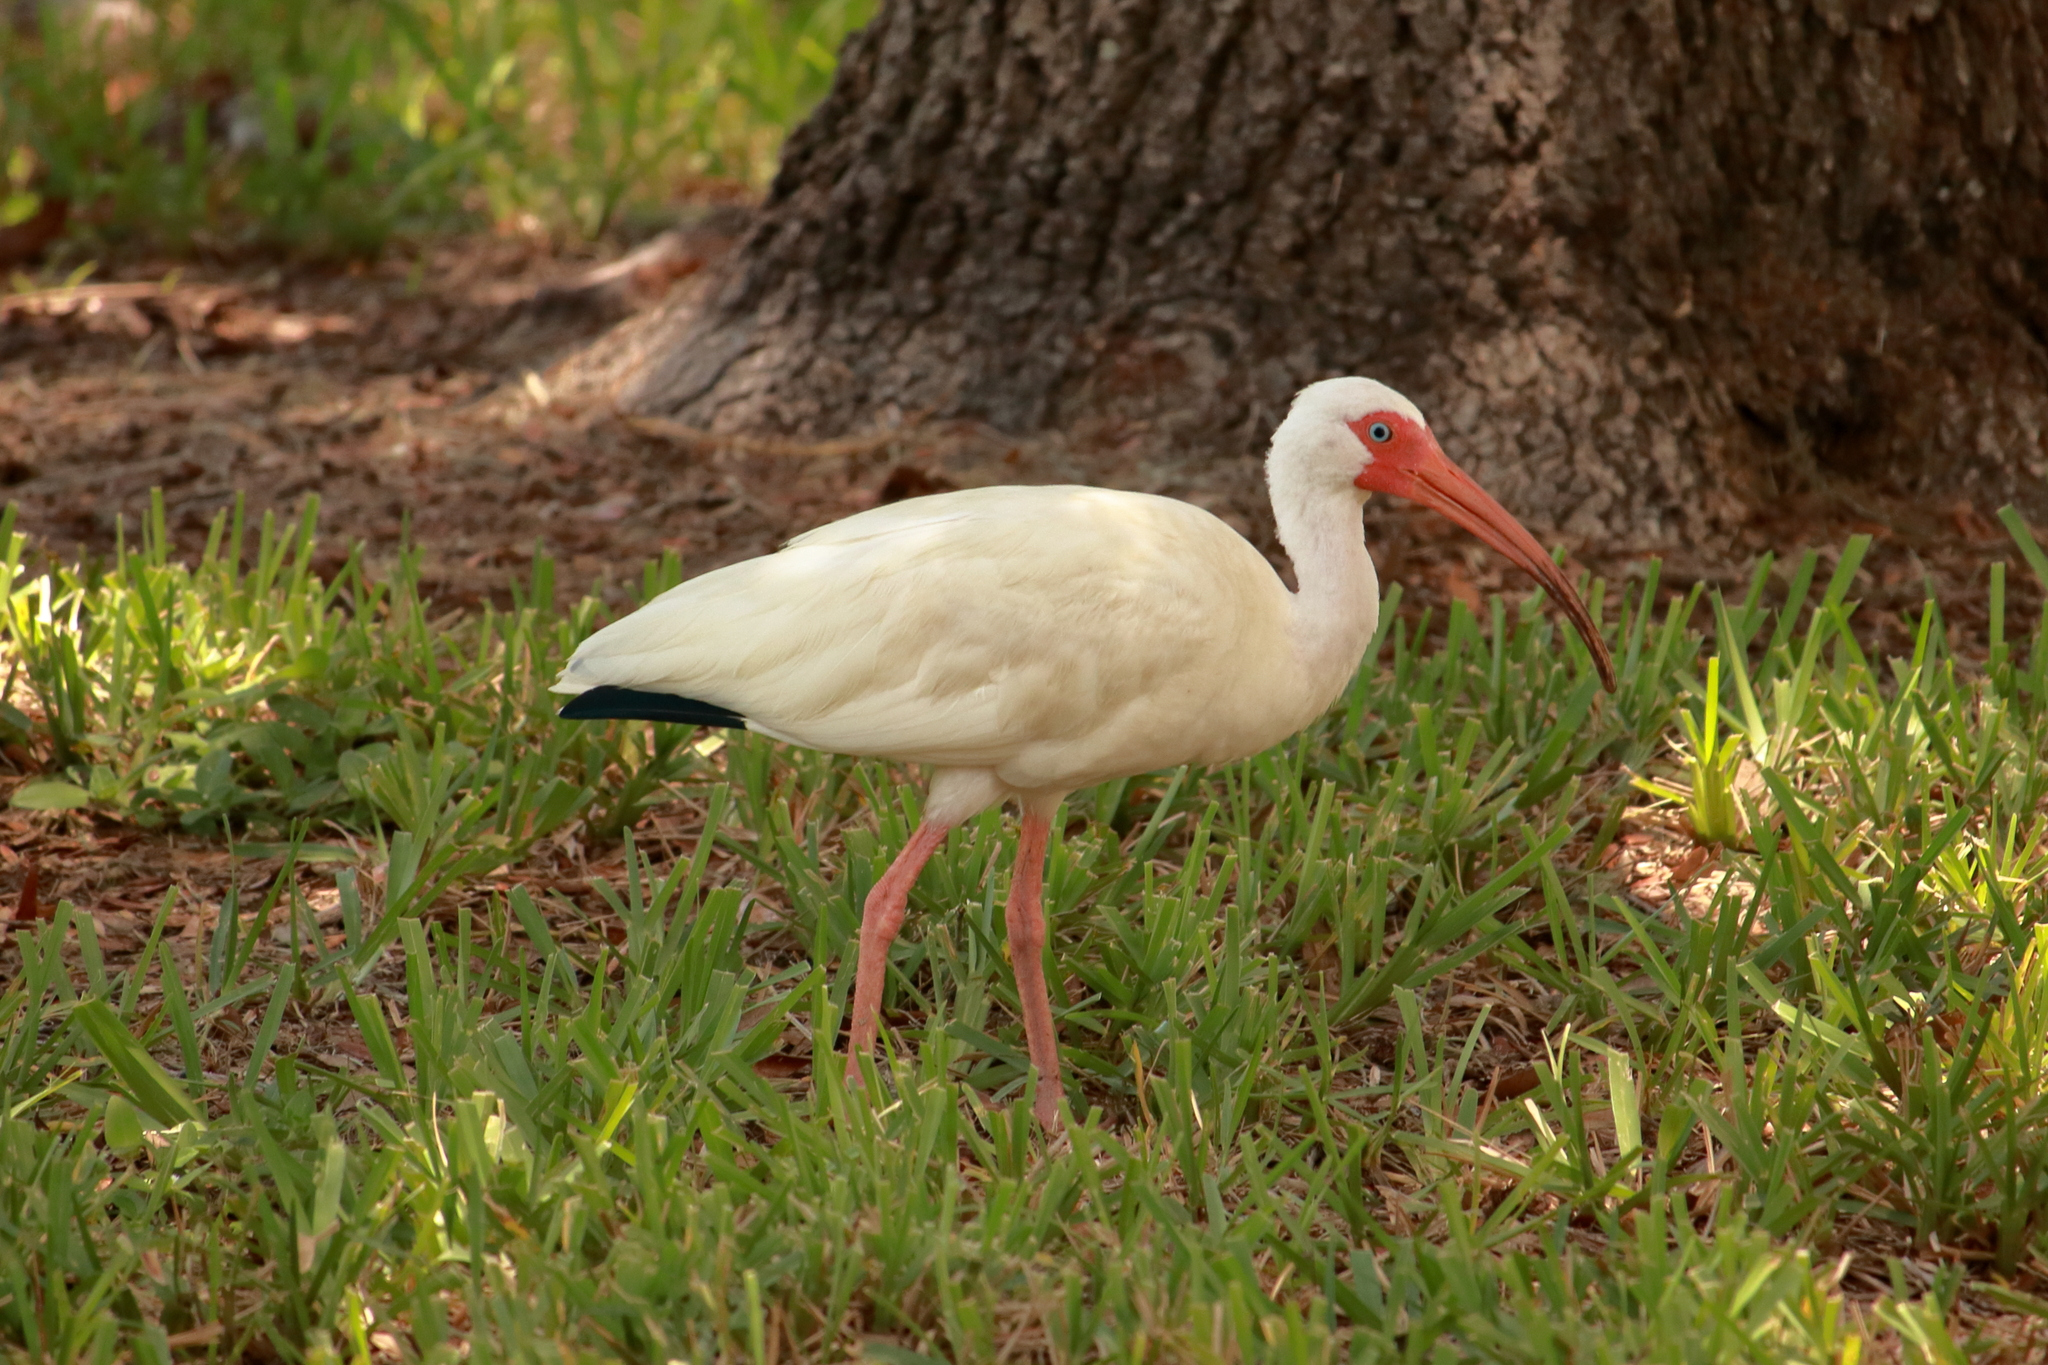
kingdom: Animalia
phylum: Chordata
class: Aves
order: Pelecaniformes
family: Threskiornithidae
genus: Eudocimus
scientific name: Eudocimus albus
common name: White ibis
